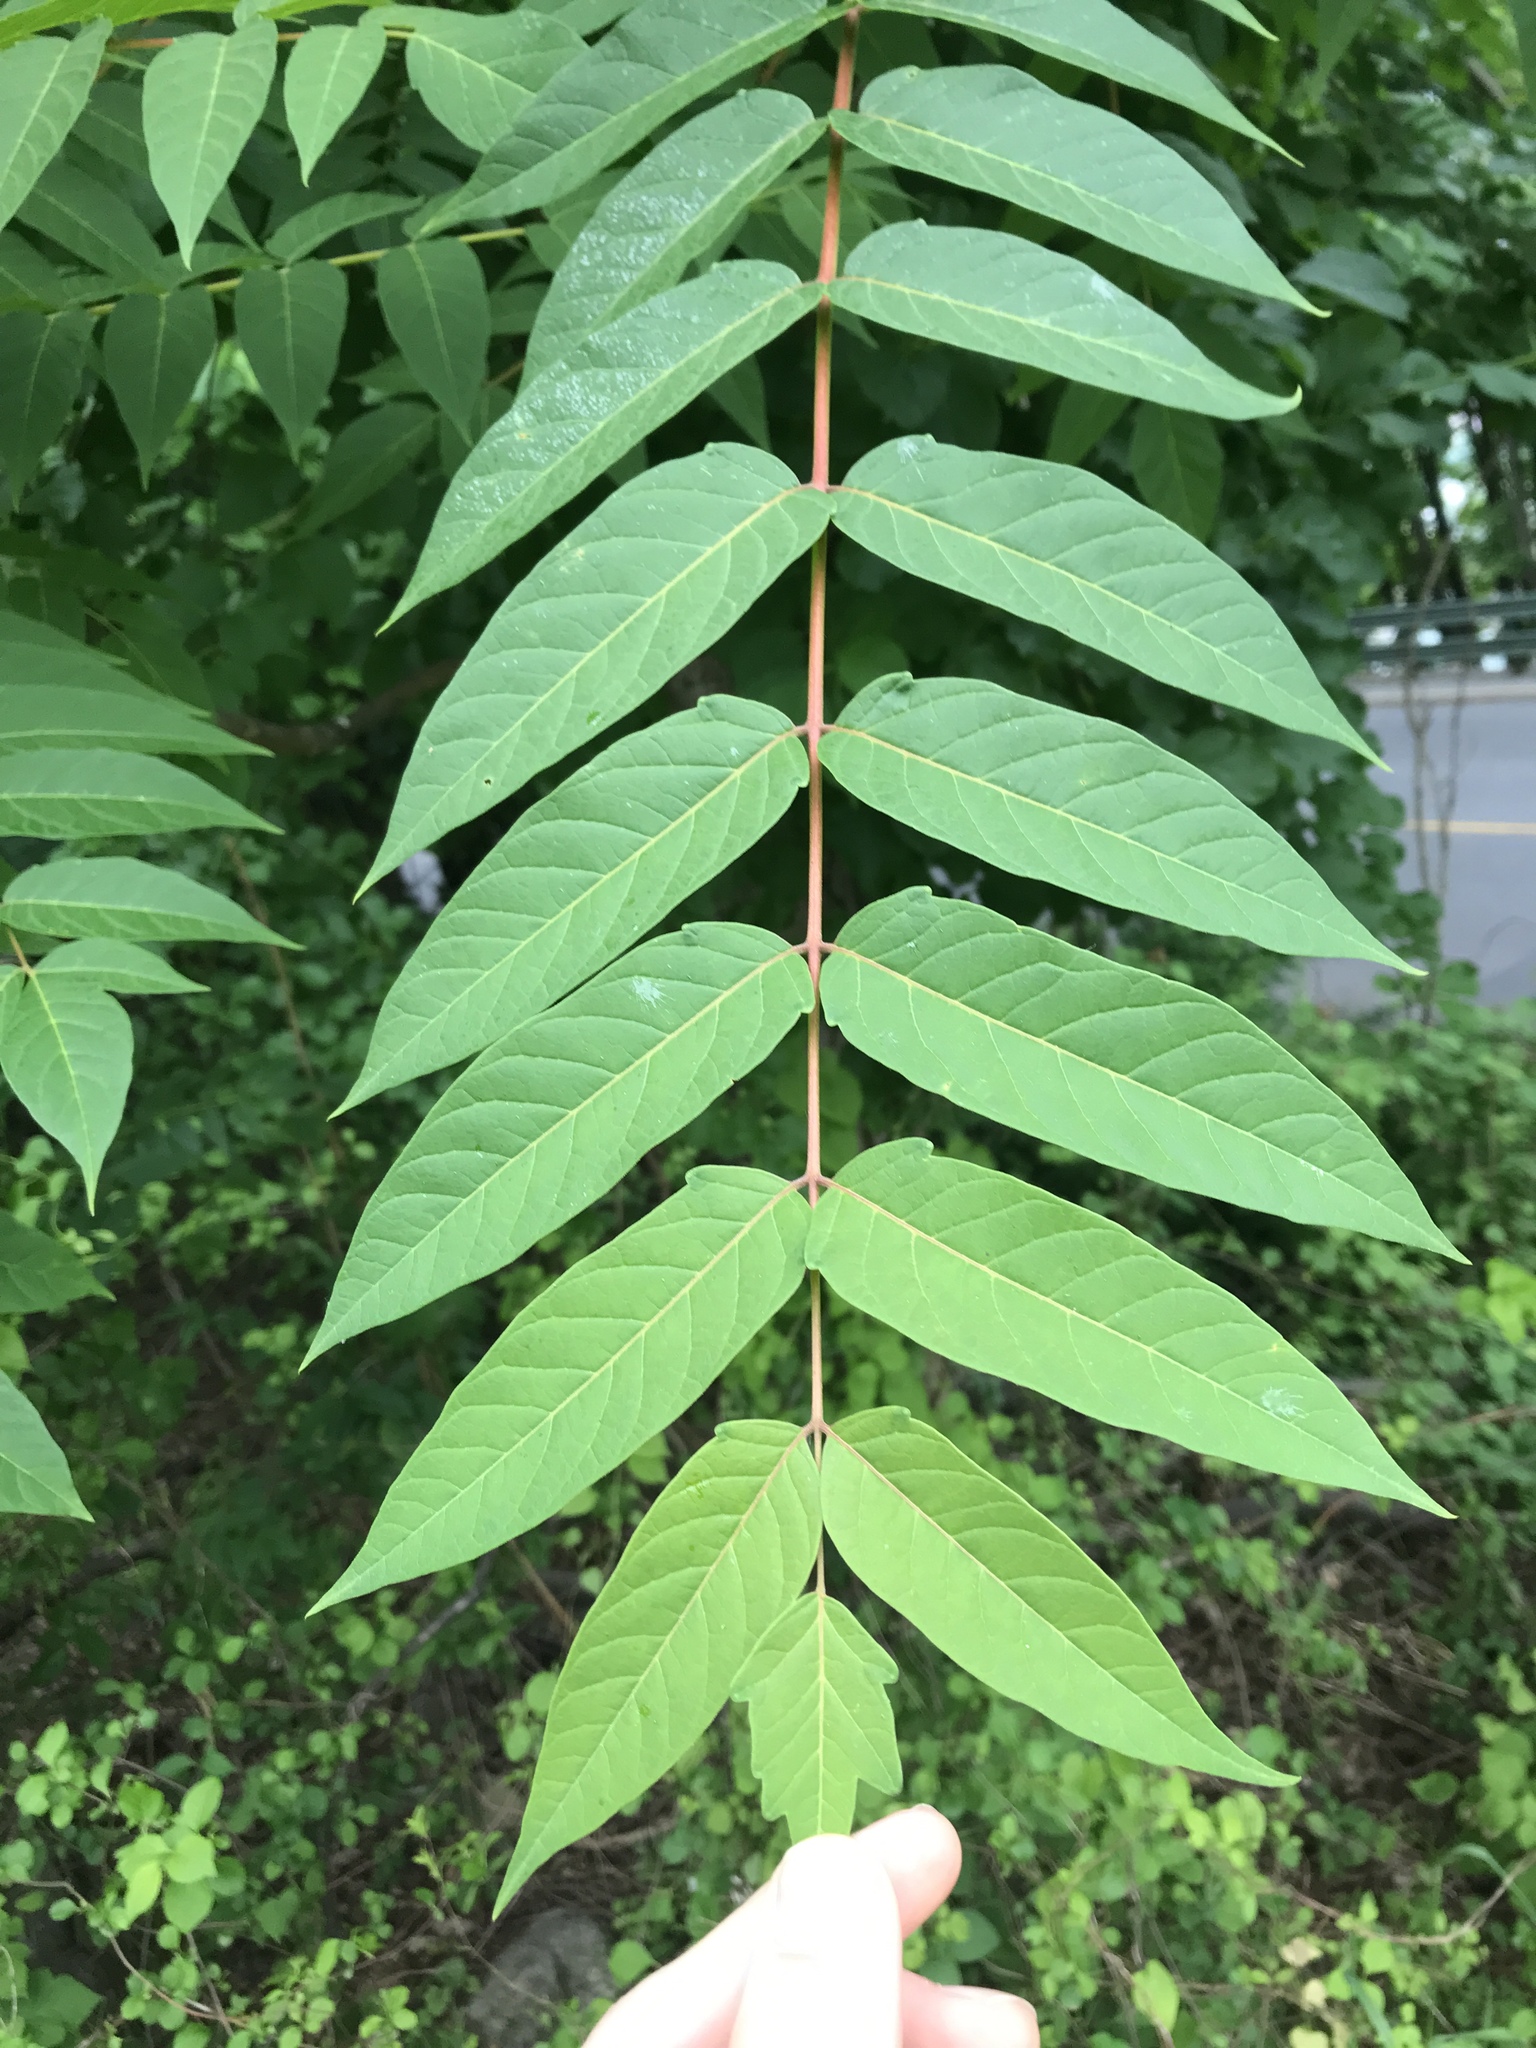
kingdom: Plantae
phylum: Tracheophyta
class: Magnoliopsida
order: Sapindales
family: Simaroubaceae
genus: Ailanthus
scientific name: Ailanthus altissima
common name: Tree-of-heaven
